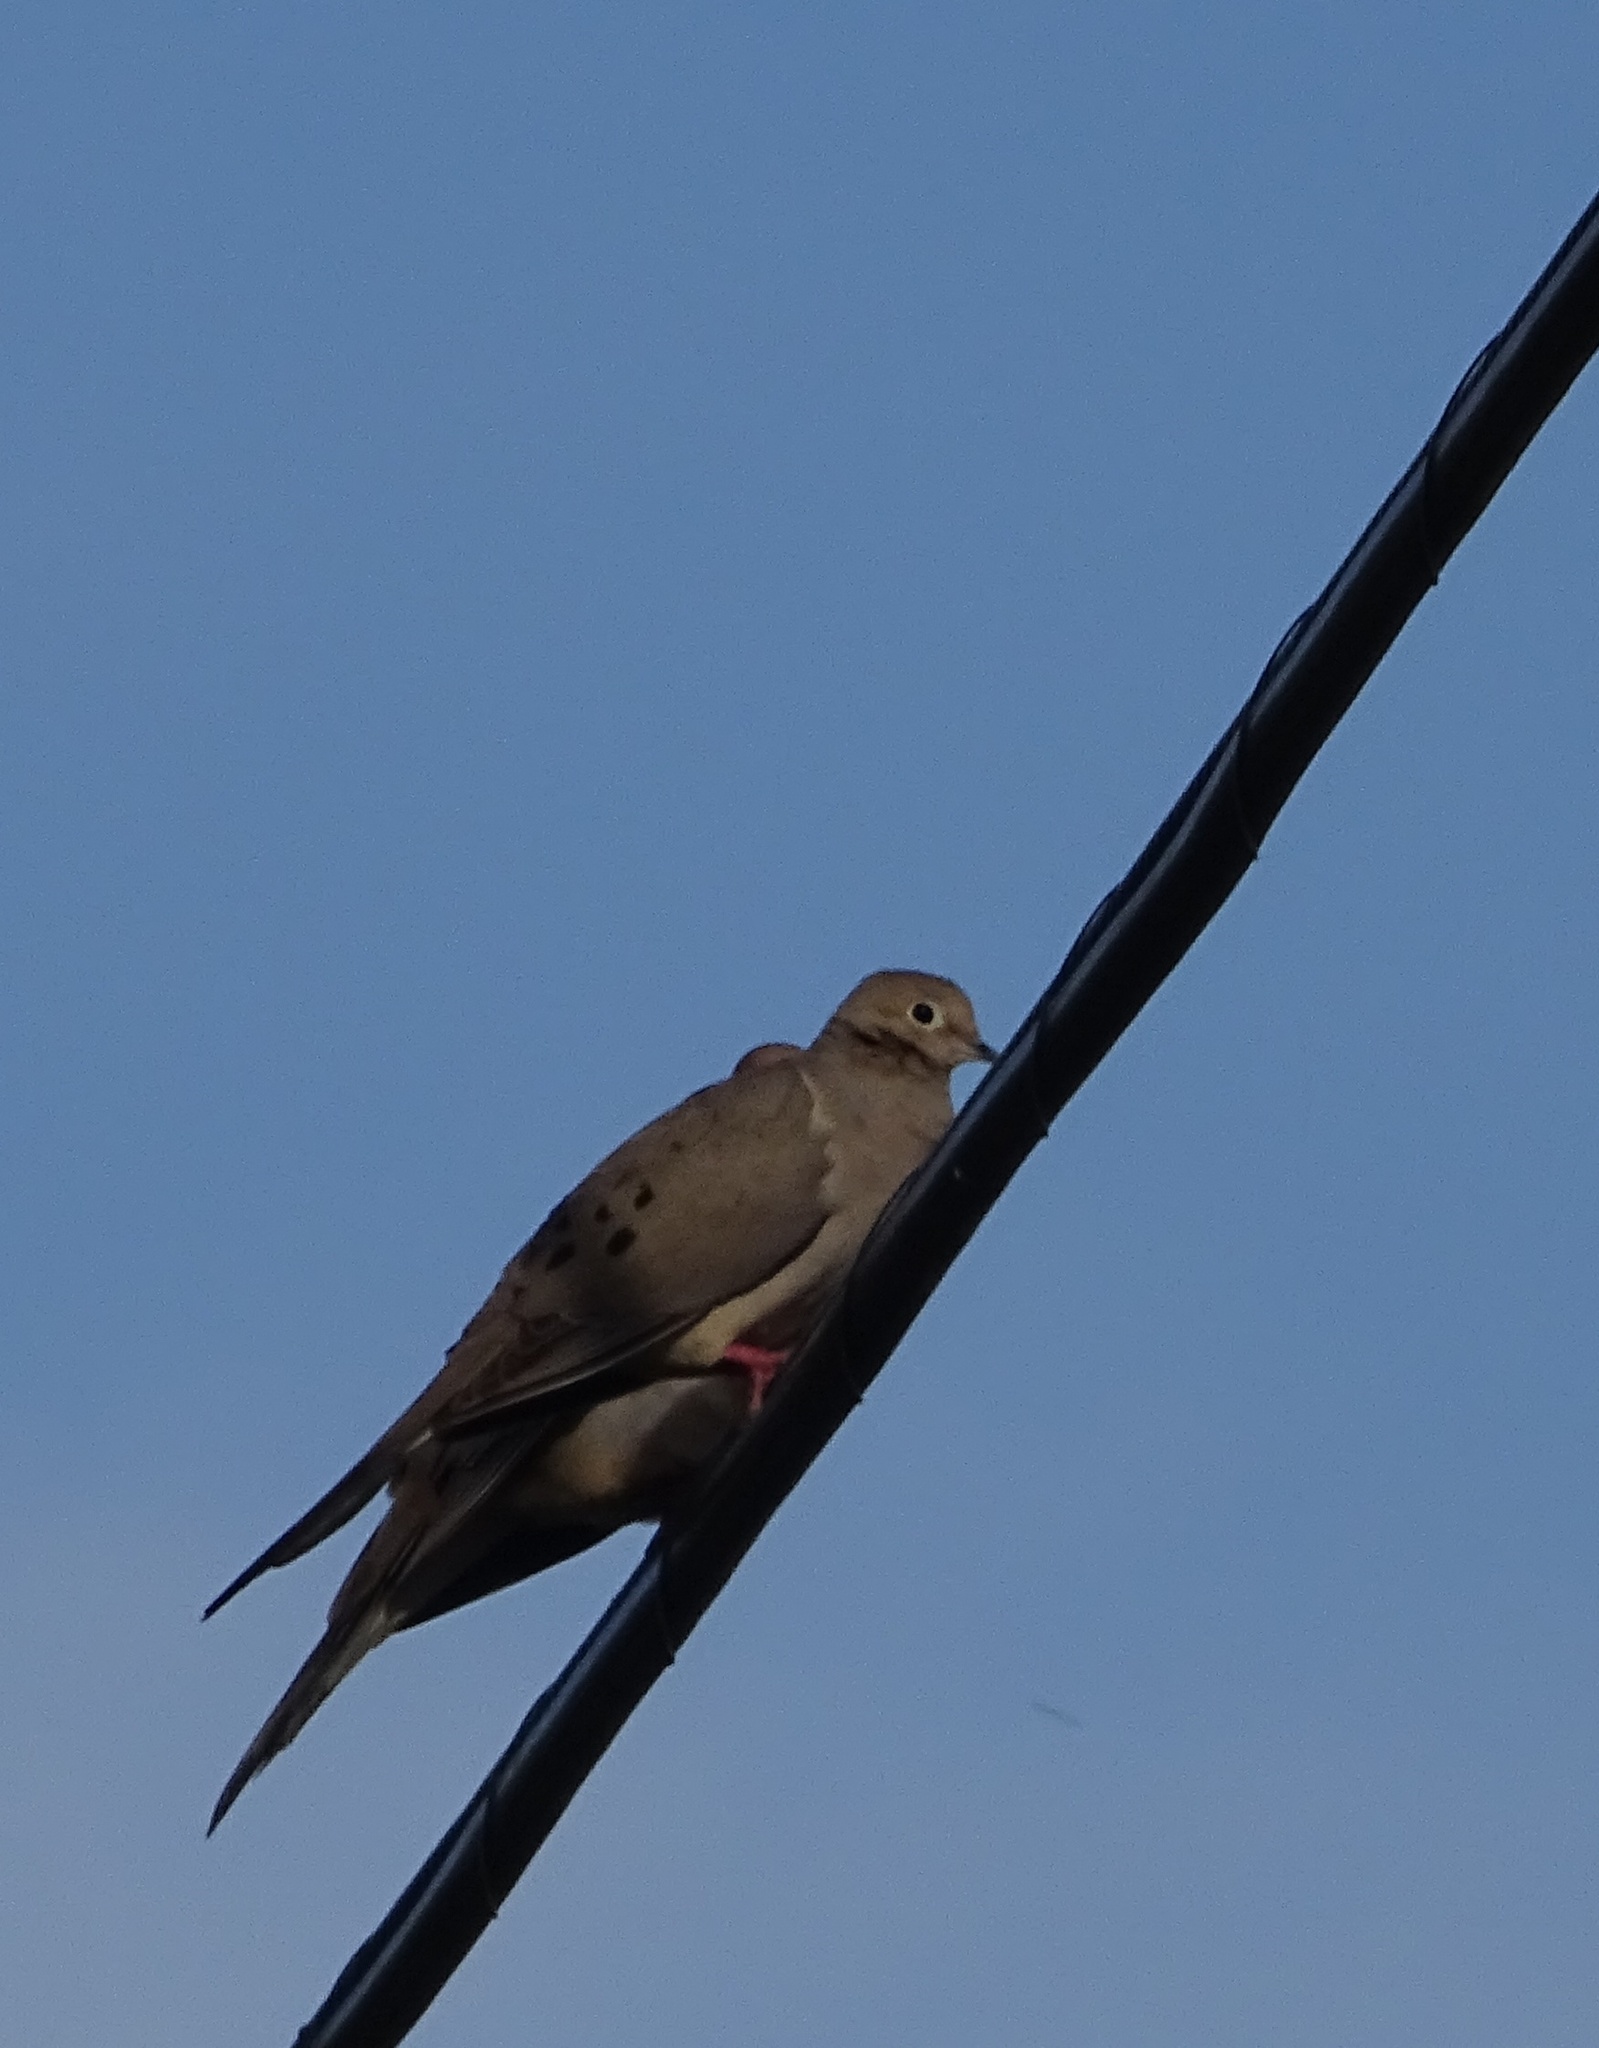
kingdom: Animalia
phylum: Chordata
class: Aves
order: Columbiformes
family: Columbidae
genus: Zenaida
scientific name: Zenaida macroura
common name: Mourning dove
